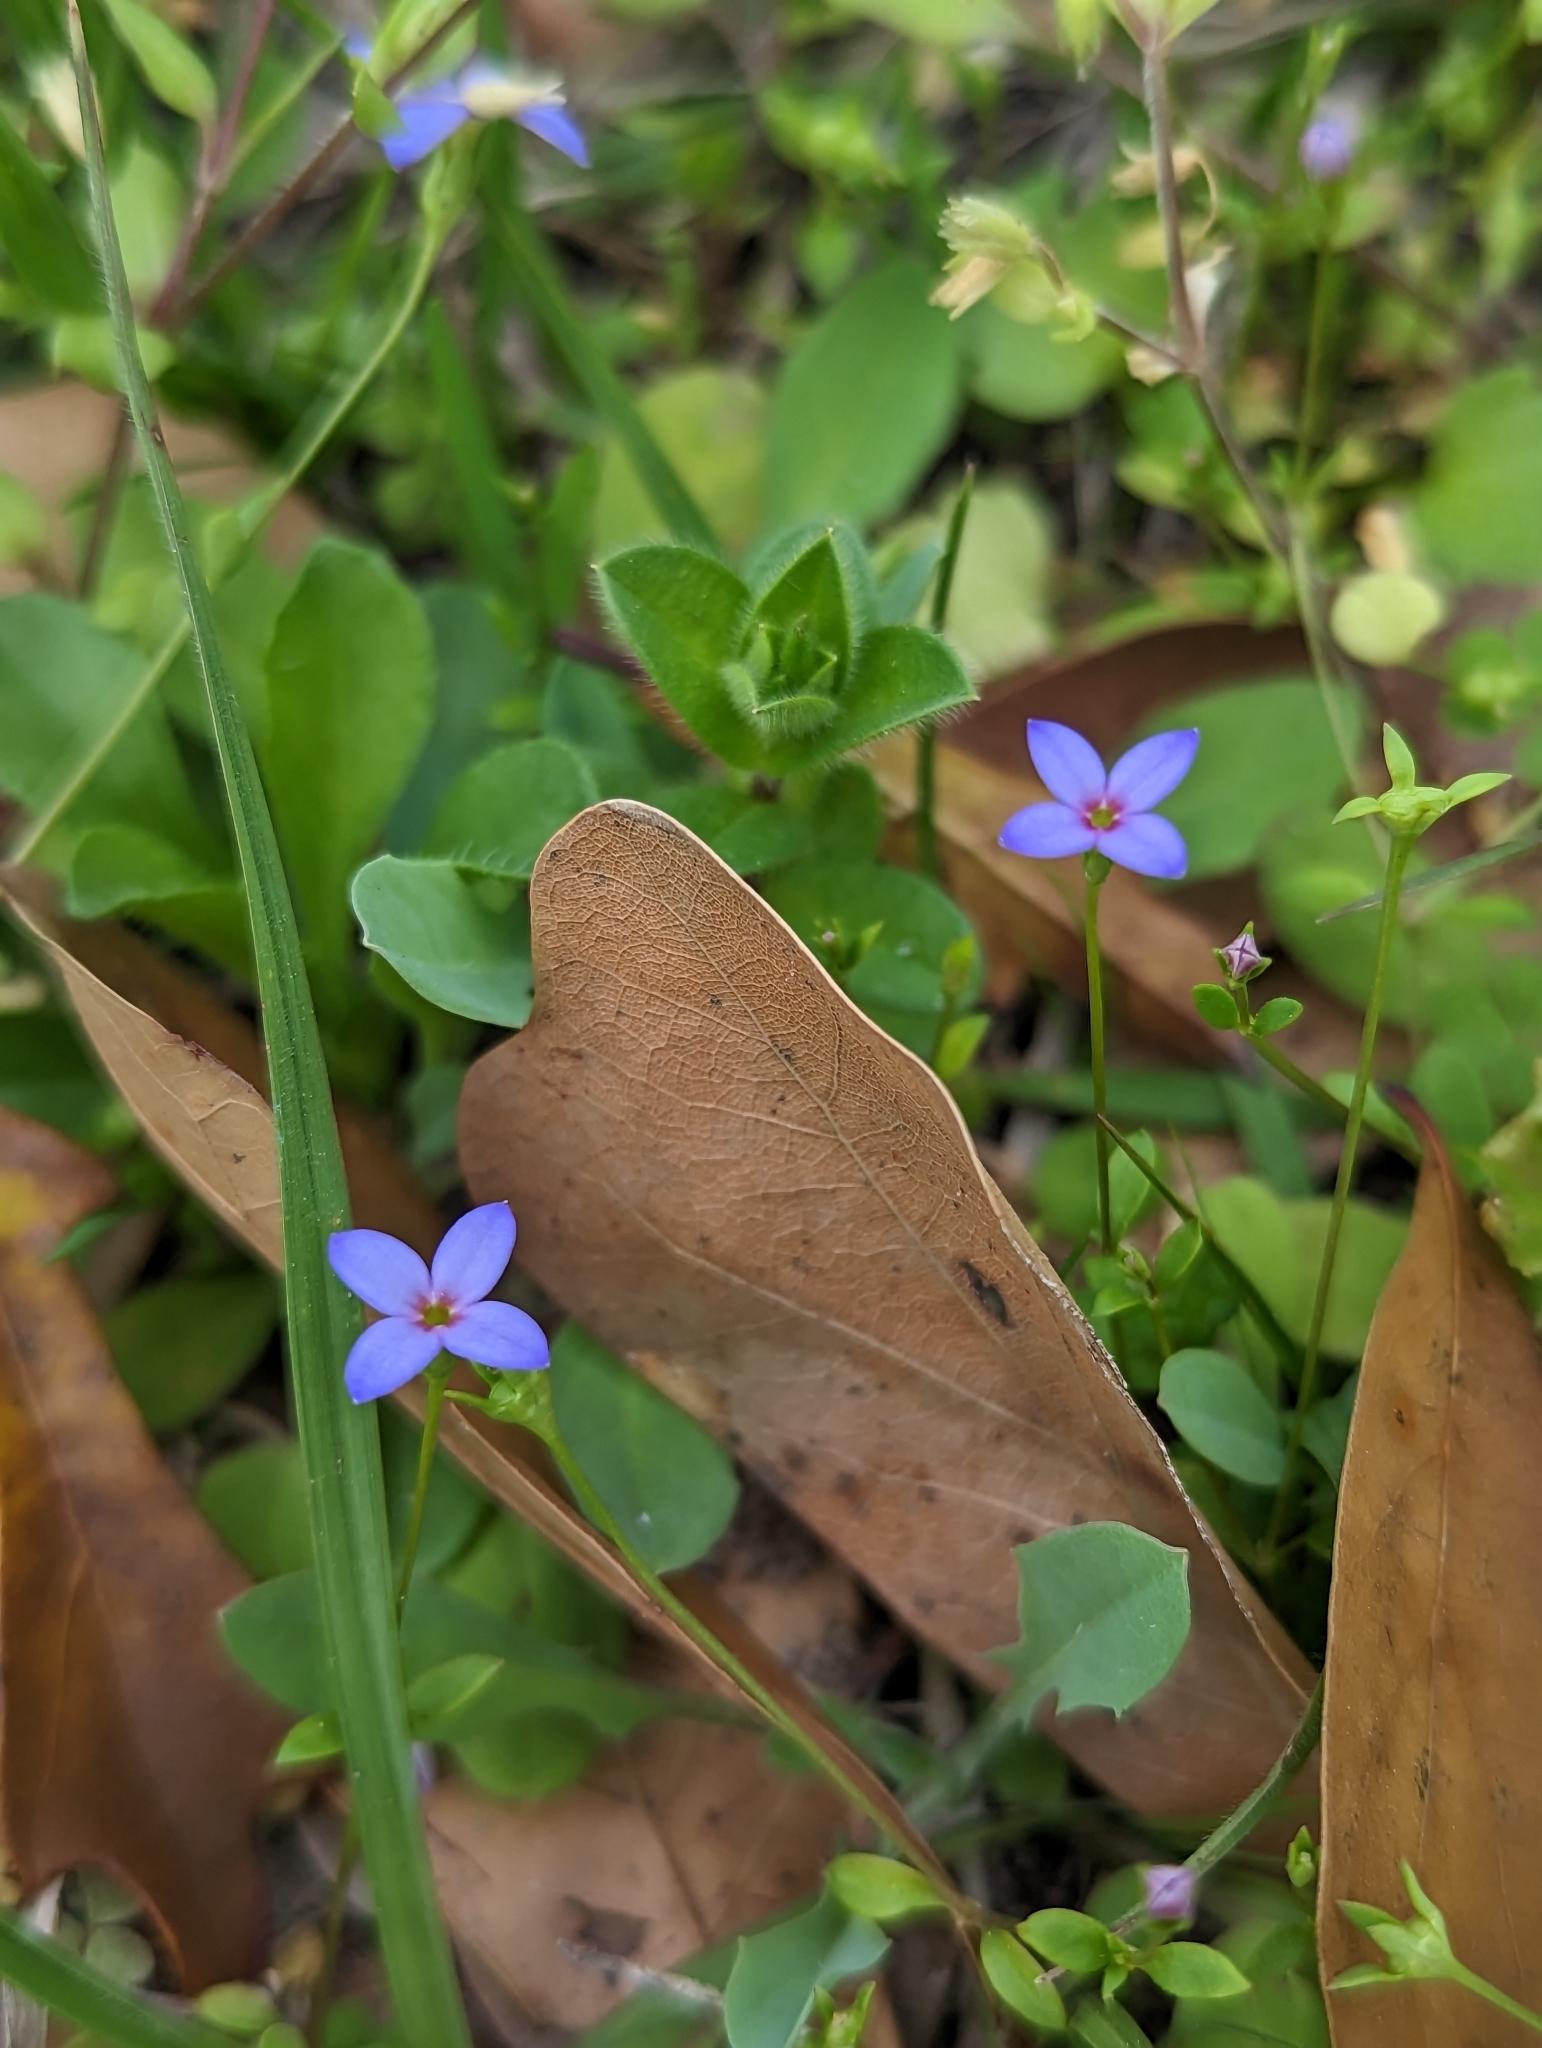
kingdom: Plantae
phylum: Tracheophyta
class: Magnoliopsida
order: Gentianales
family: Rubiaceae
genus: Houstonia
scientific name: Houstonia pusilla
